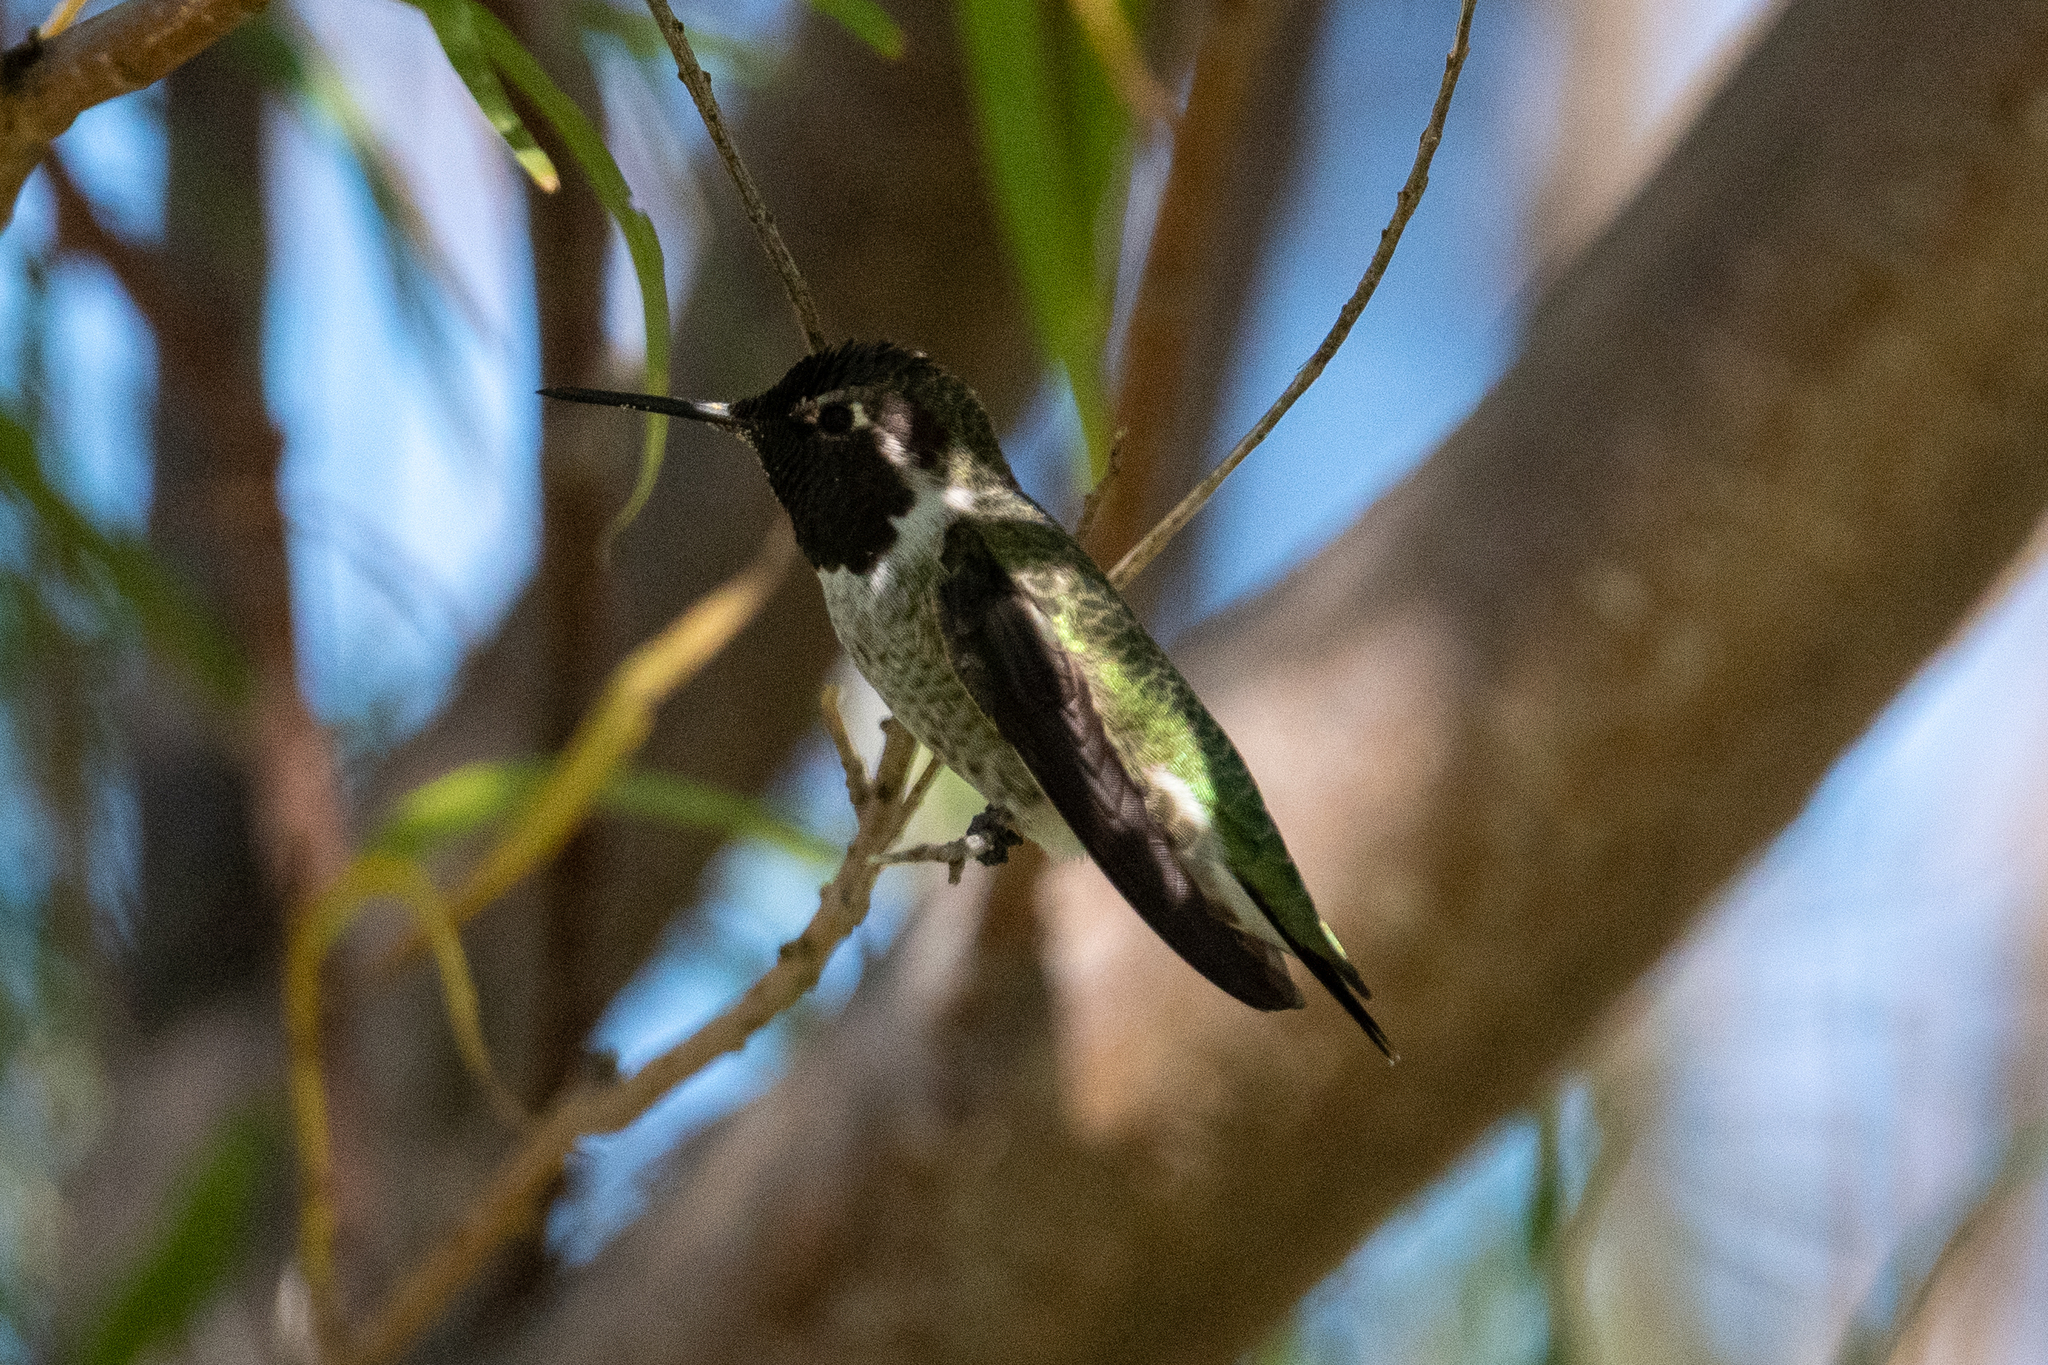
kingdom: Animalia
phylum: Chordata
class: Aves
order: Apodiformes
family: Trochilidae
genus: Calypte
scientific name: Calypte anna
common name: Anna's hummingbird
